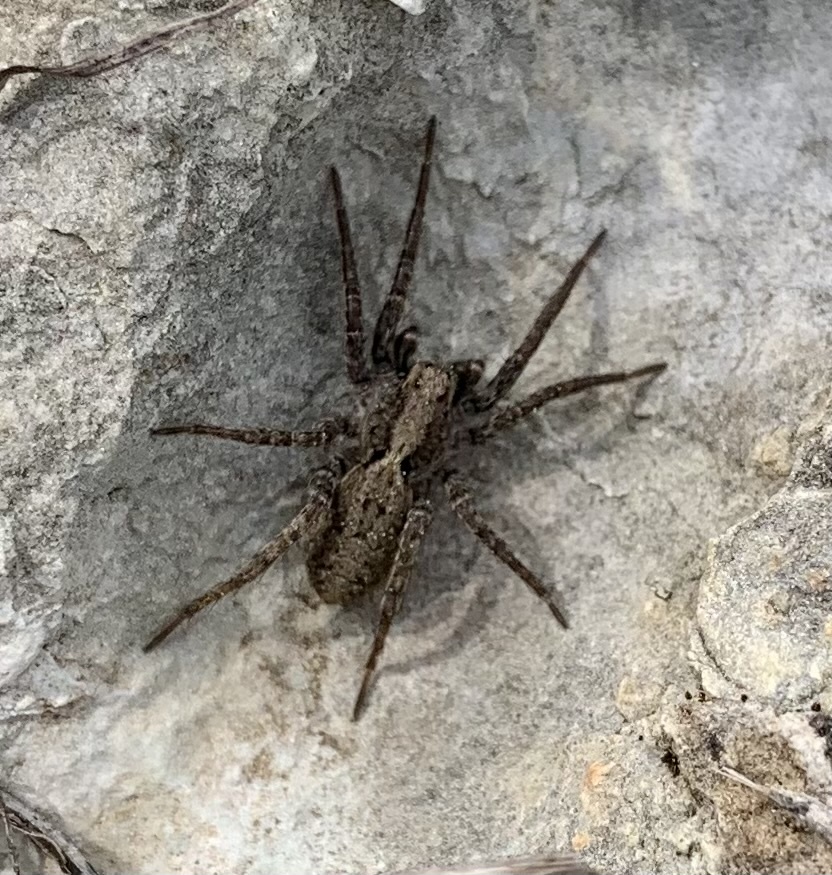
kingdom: Animalia
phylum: Arthropoda
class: Arachnida
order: Araneae
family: Lycosidae
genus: Hogna
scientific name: Hogna radiata
